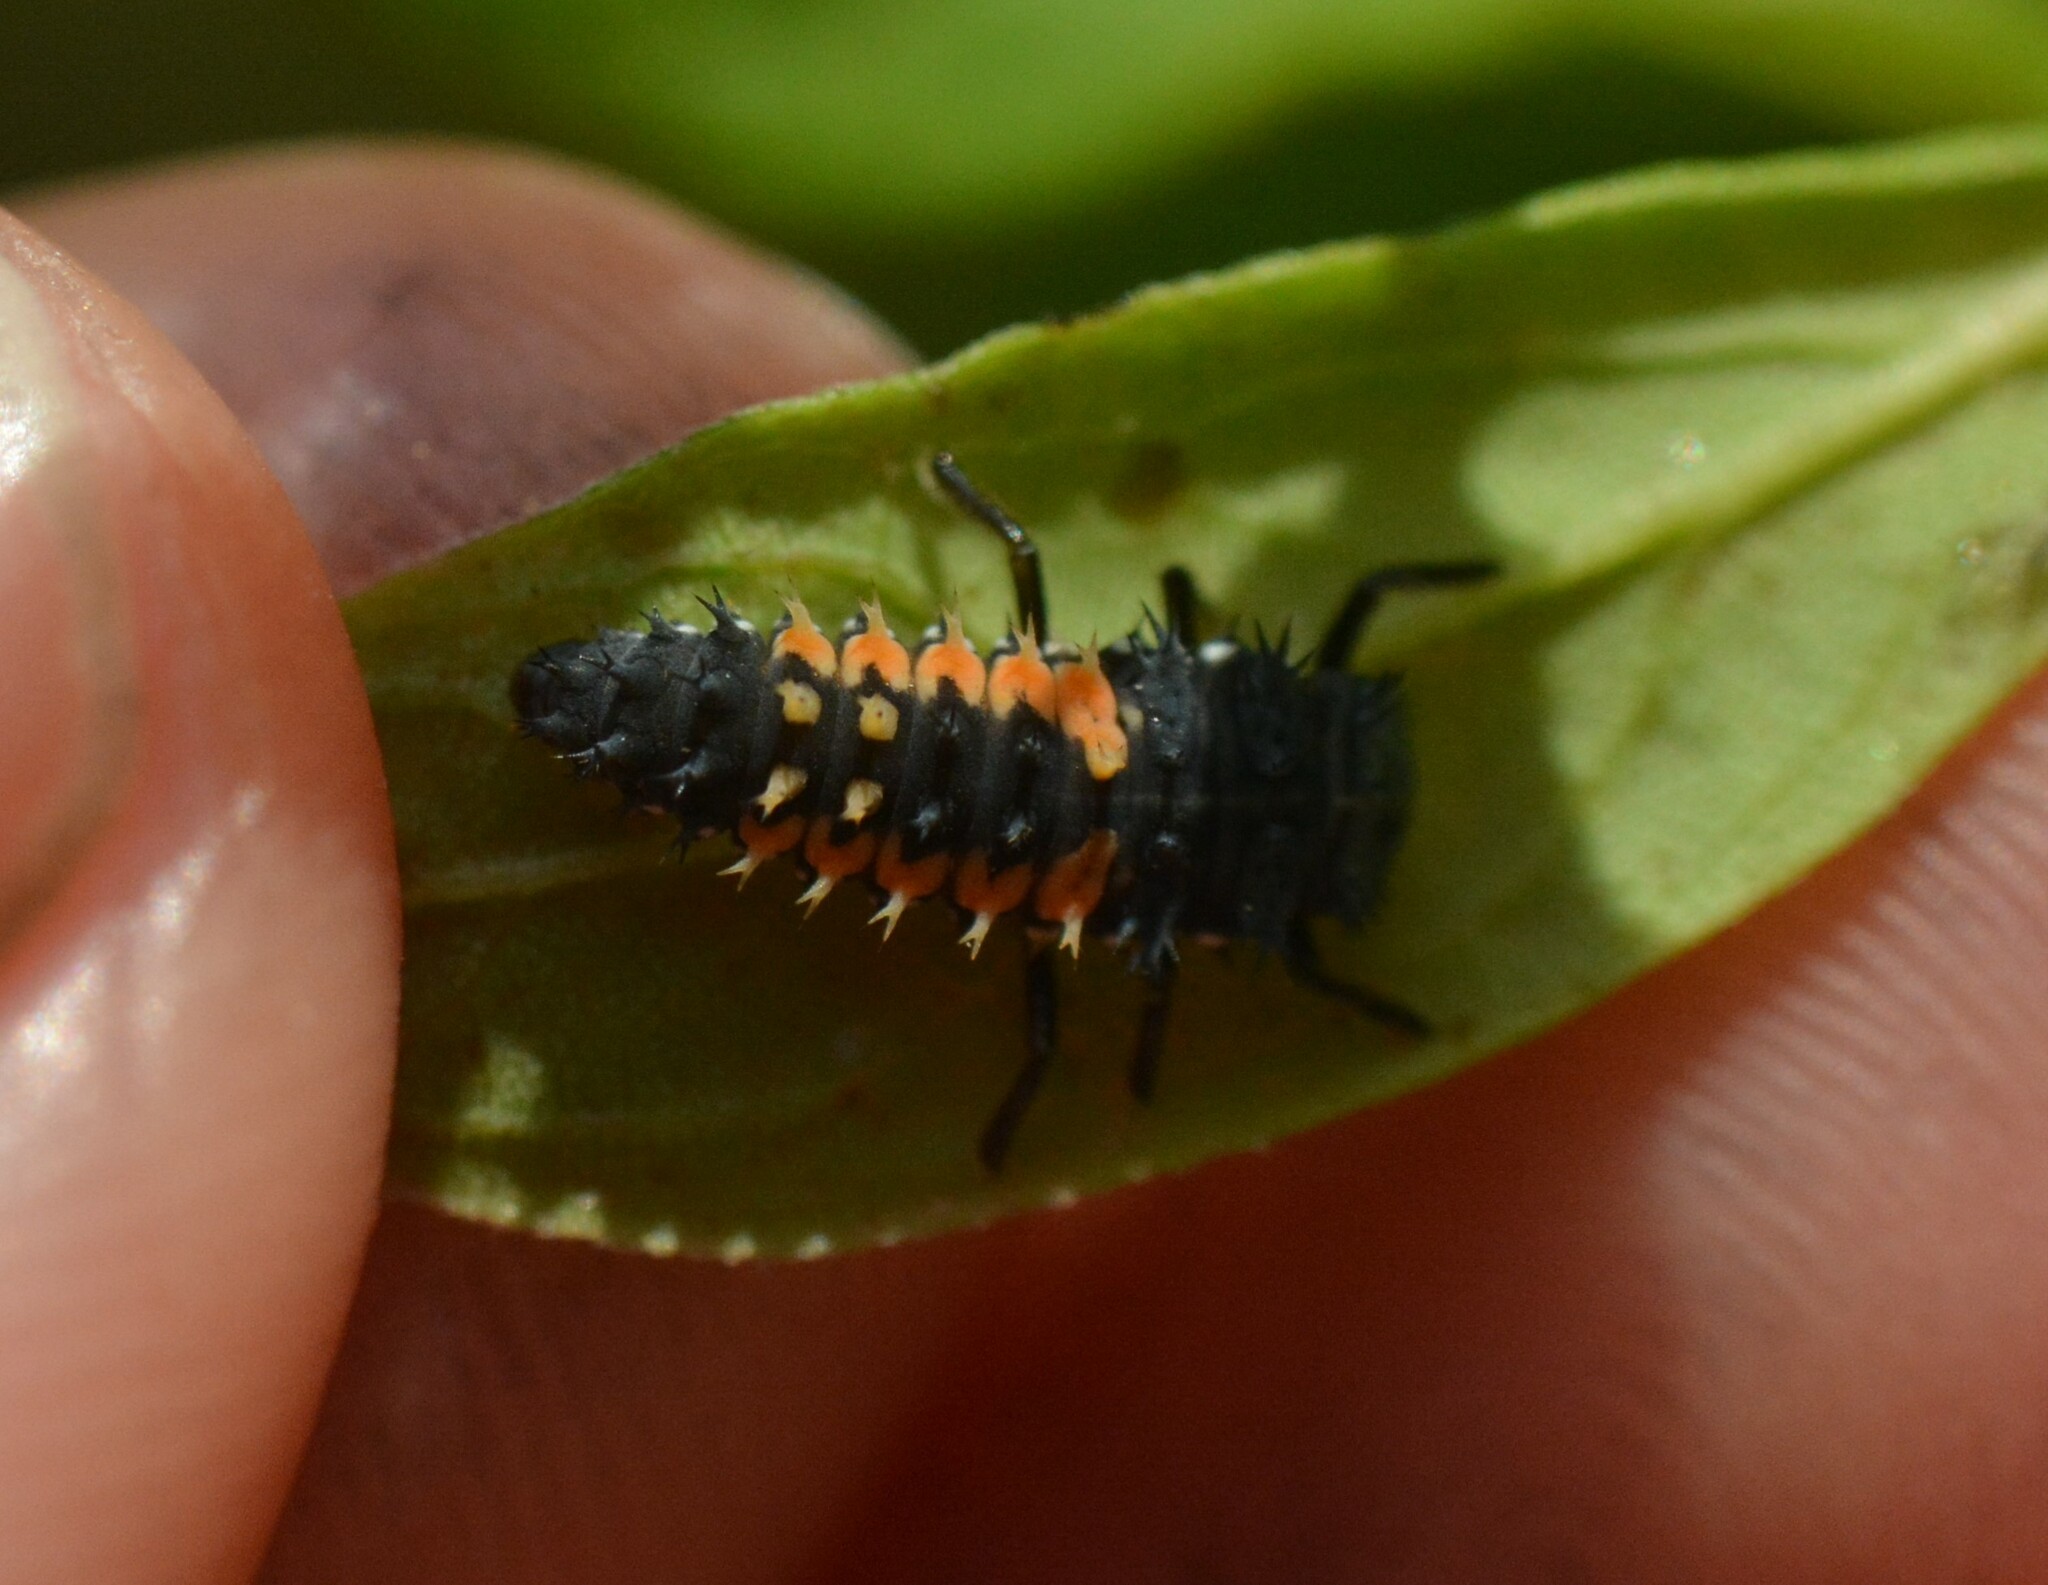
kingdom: Animalia
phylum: Arthropoda
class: Insecta
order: Coleoptera
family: Coccinellidae
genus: Harmonia
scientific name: Harmonia axyridis
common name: Harlequin ladybird
